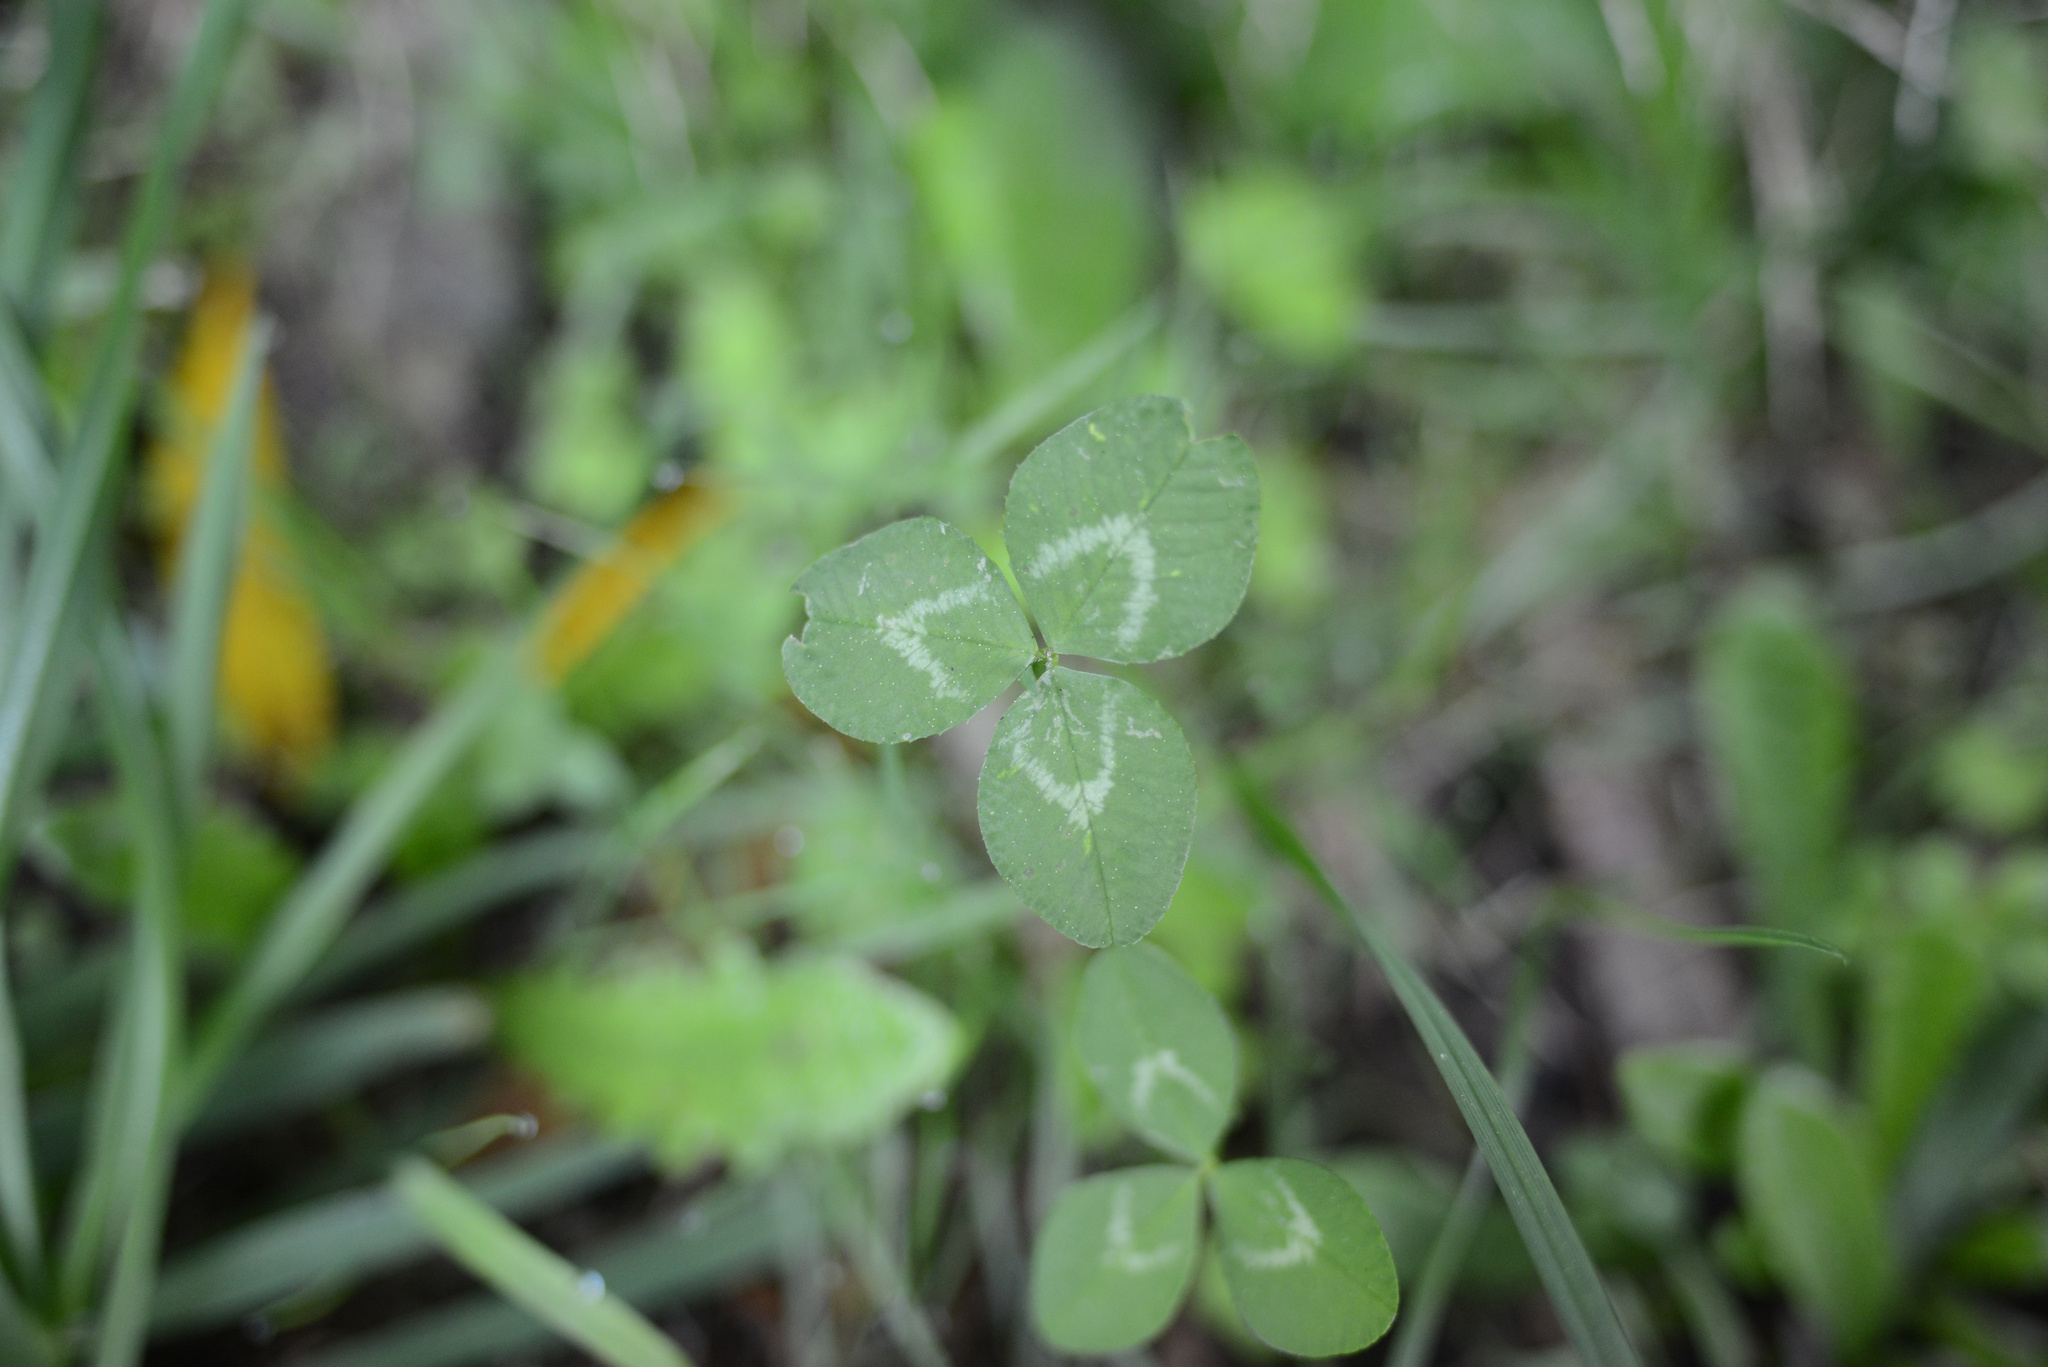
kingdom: Plantae
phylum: Tracheophyta
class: Magnoliopsida
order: Fabales
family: Fabaceae
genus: Trifolium
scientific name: Trifolium repens
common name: White clover
